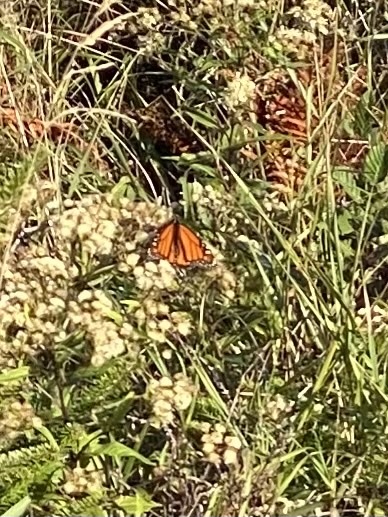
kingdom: Animalia
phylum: Arthropoda
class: Insecta
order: Lepidoptera
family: Nymphalidae
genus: Danaus
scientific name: Danaus plexippus
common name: Monarch
